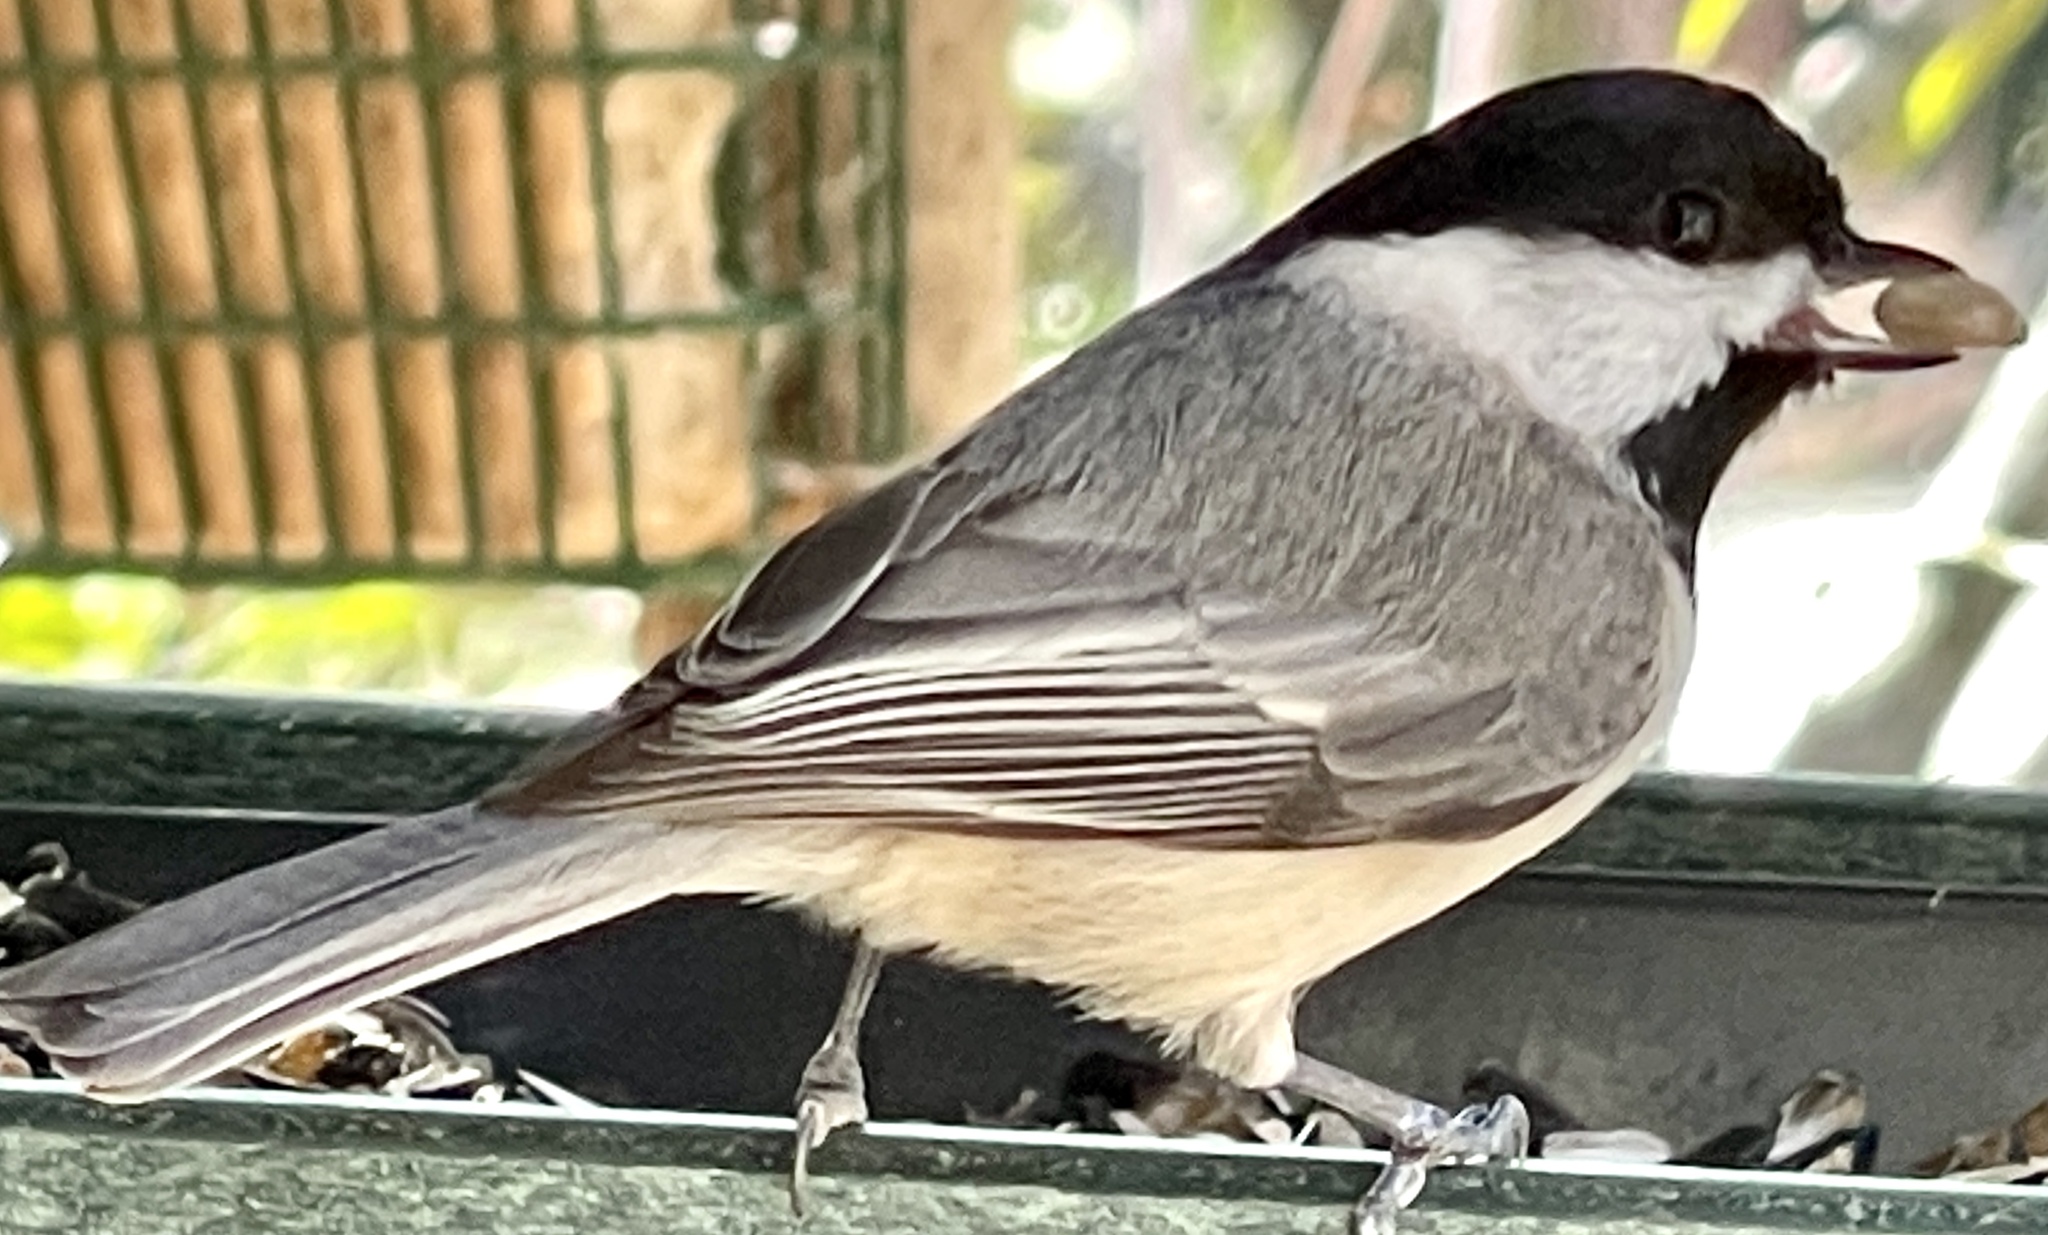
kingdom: Animalia
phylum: Chordata
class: Aves
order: Passeriformes
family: Paridae
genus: Poecile
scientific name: Poecile carolinensis
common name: Carolina chickadee
